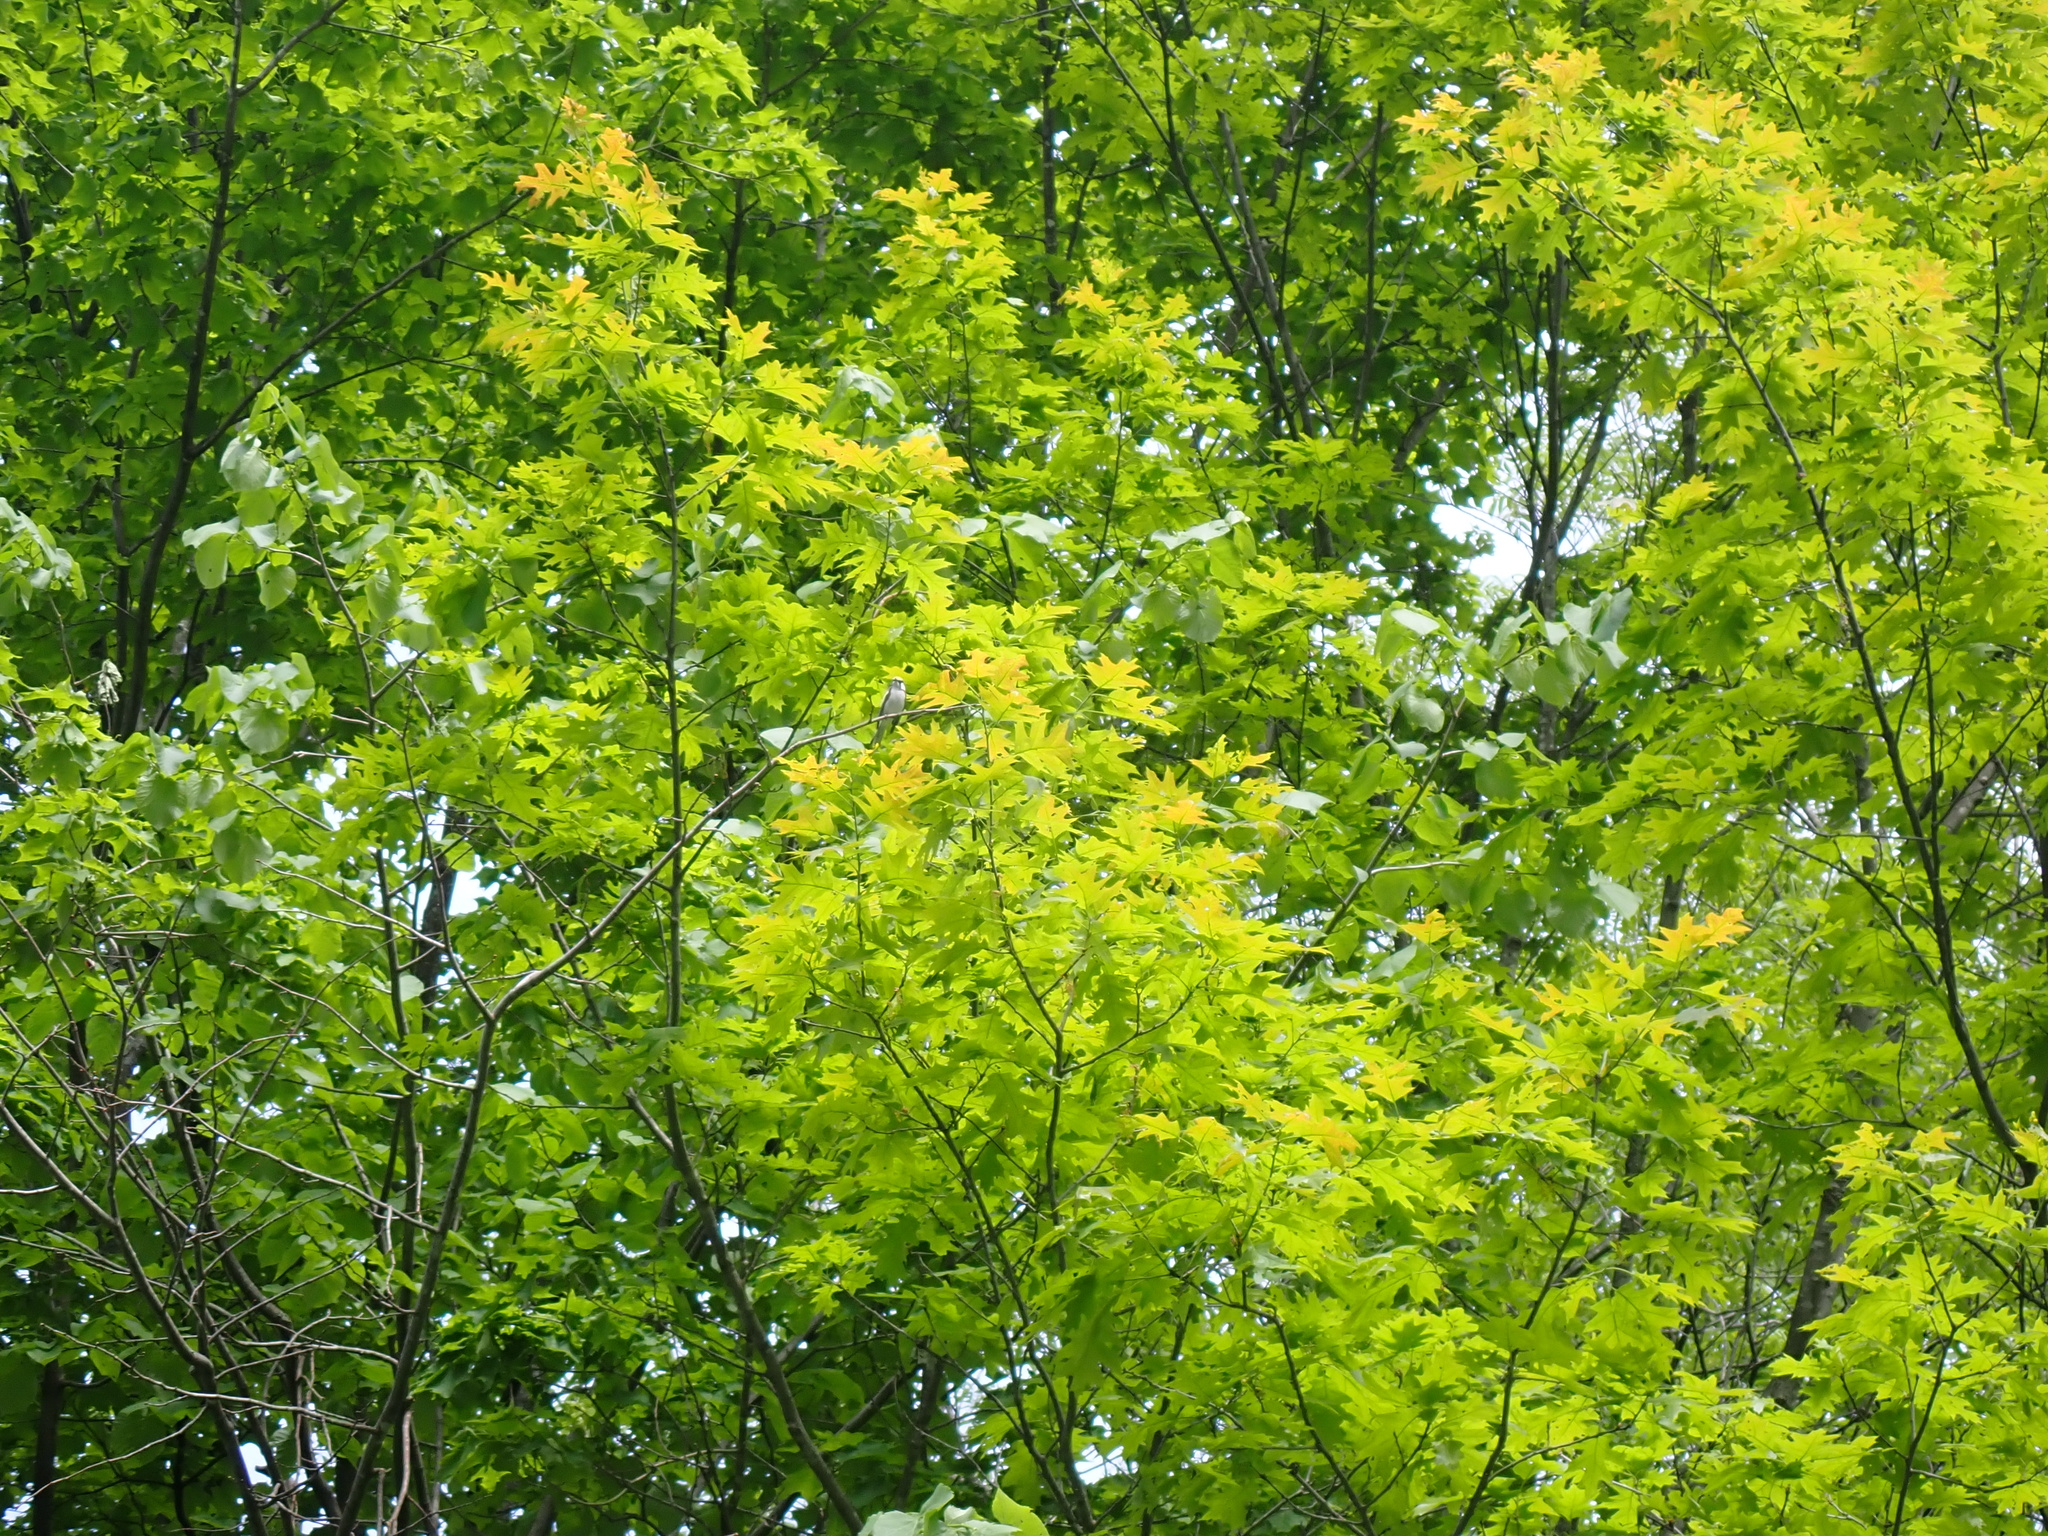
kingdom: Plantae
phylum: Tracheophyta
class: Magnoliopsida
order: Fagales
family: Fagaceae
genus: Quercus
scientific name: Quercus rubra
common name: Red oak
